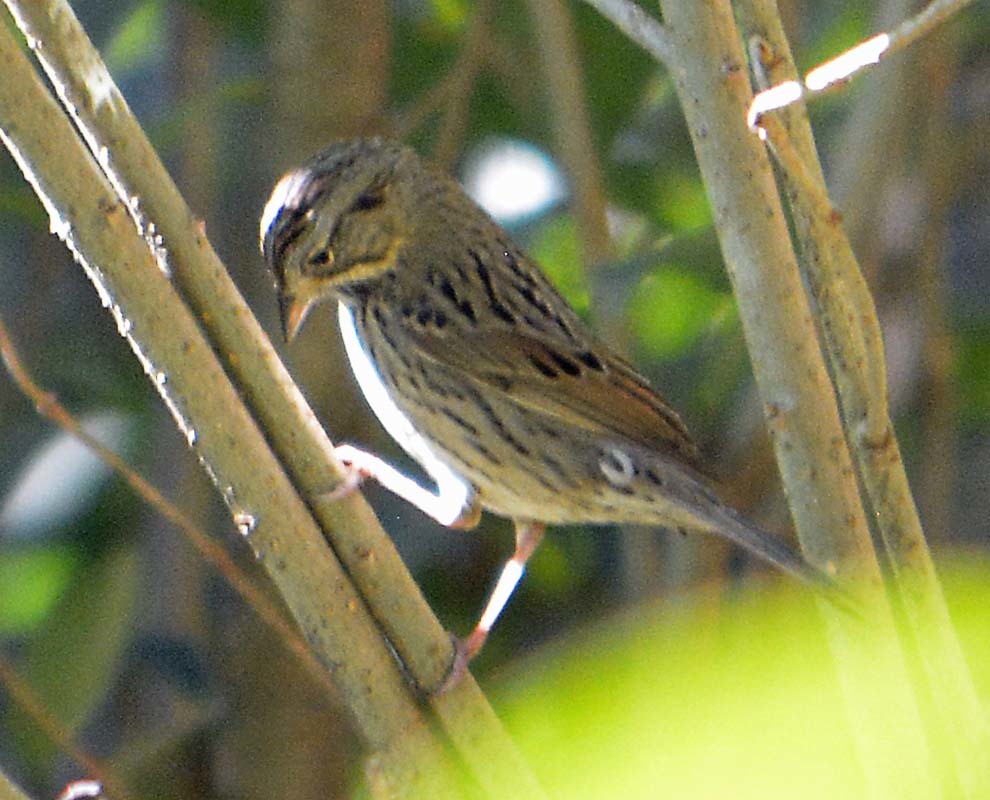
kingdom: Animalia
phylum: Chordata
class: Aves
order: Passeriformes
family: Passerellidae
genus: Melospiza
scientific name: Melospiza lincolnii
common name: Lincoln's sparrow
